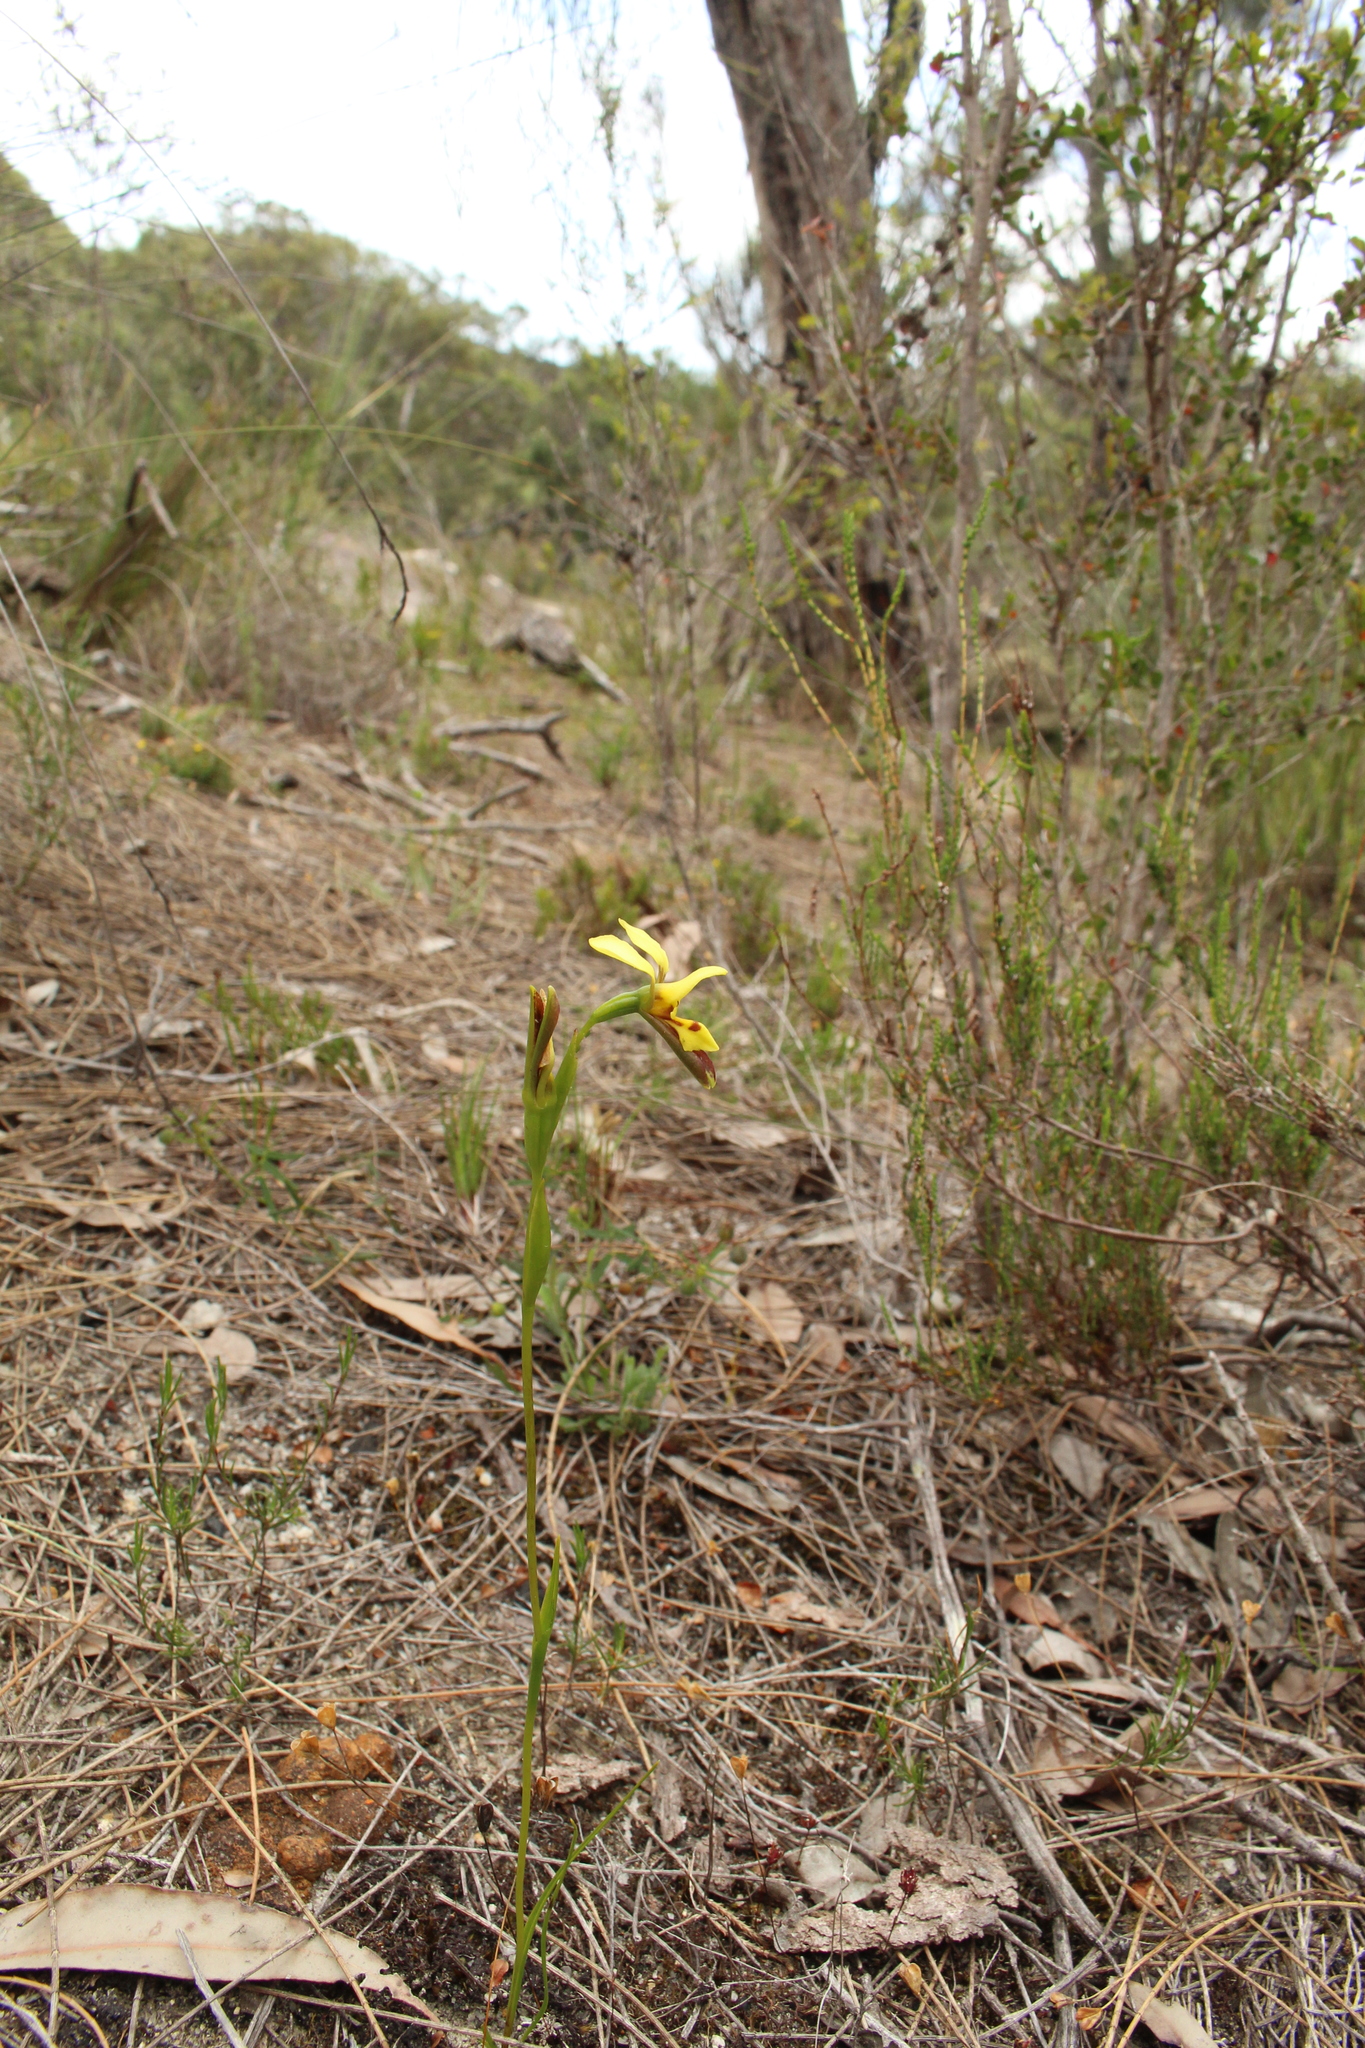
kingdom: Plantae
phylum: Tracheophyta
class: Liliopsida
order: Asparagales
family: Orchidaceae
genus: Diuris
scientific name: Diuris setacea
